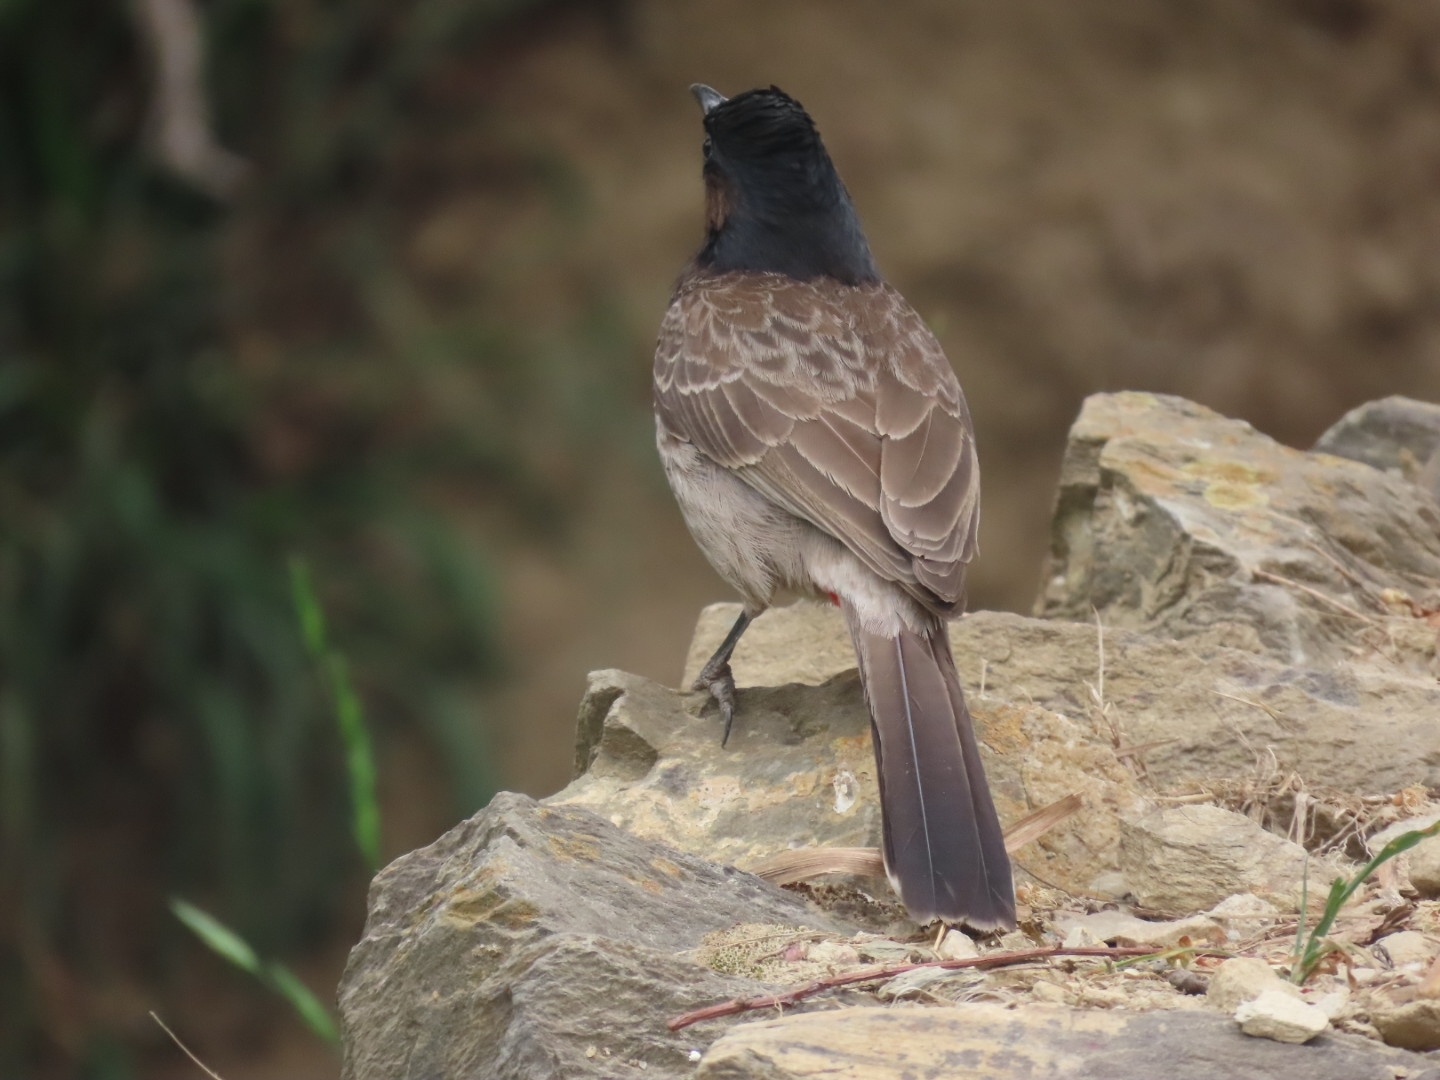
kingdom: Animalia
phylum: Chordata
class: Aves
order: Passeriformes
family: Pycnonotidae
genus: Pycnonotus
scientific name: Pycnonotus cafer
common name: Red-vented bulbul
